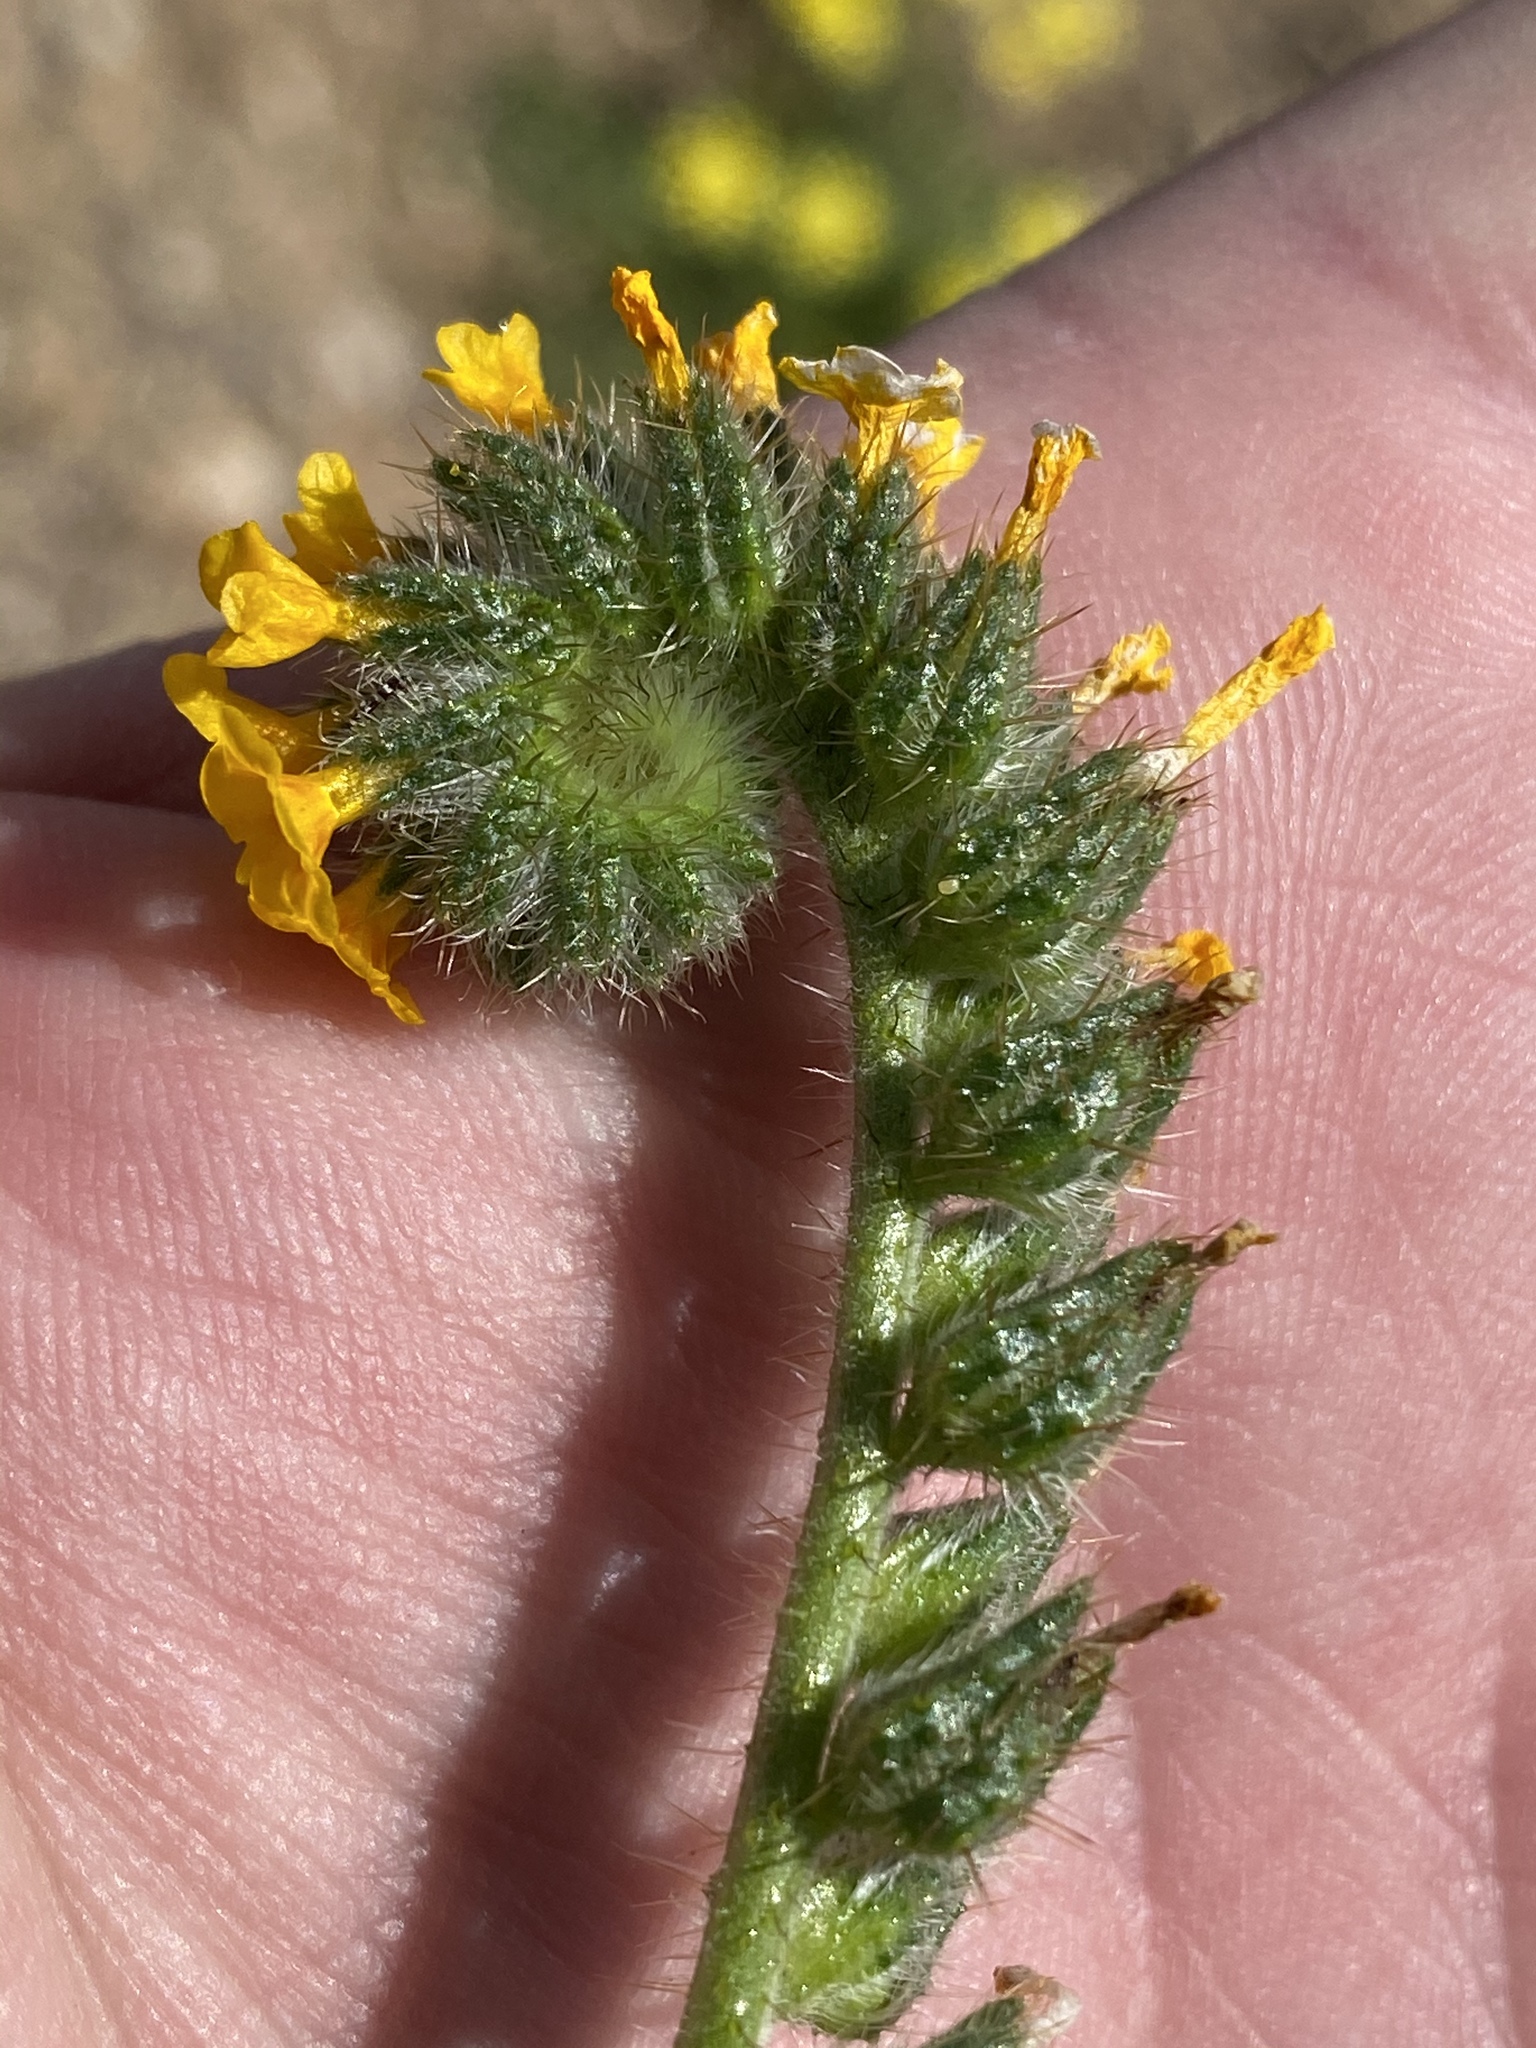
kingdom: Plantae
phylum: Tracheophyta
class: Magnoliopsida
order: Boraginales
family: Boraginaceae
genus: Amsinckia
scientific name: Amsinckia menziesii
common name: Menzies' fiddleneck
